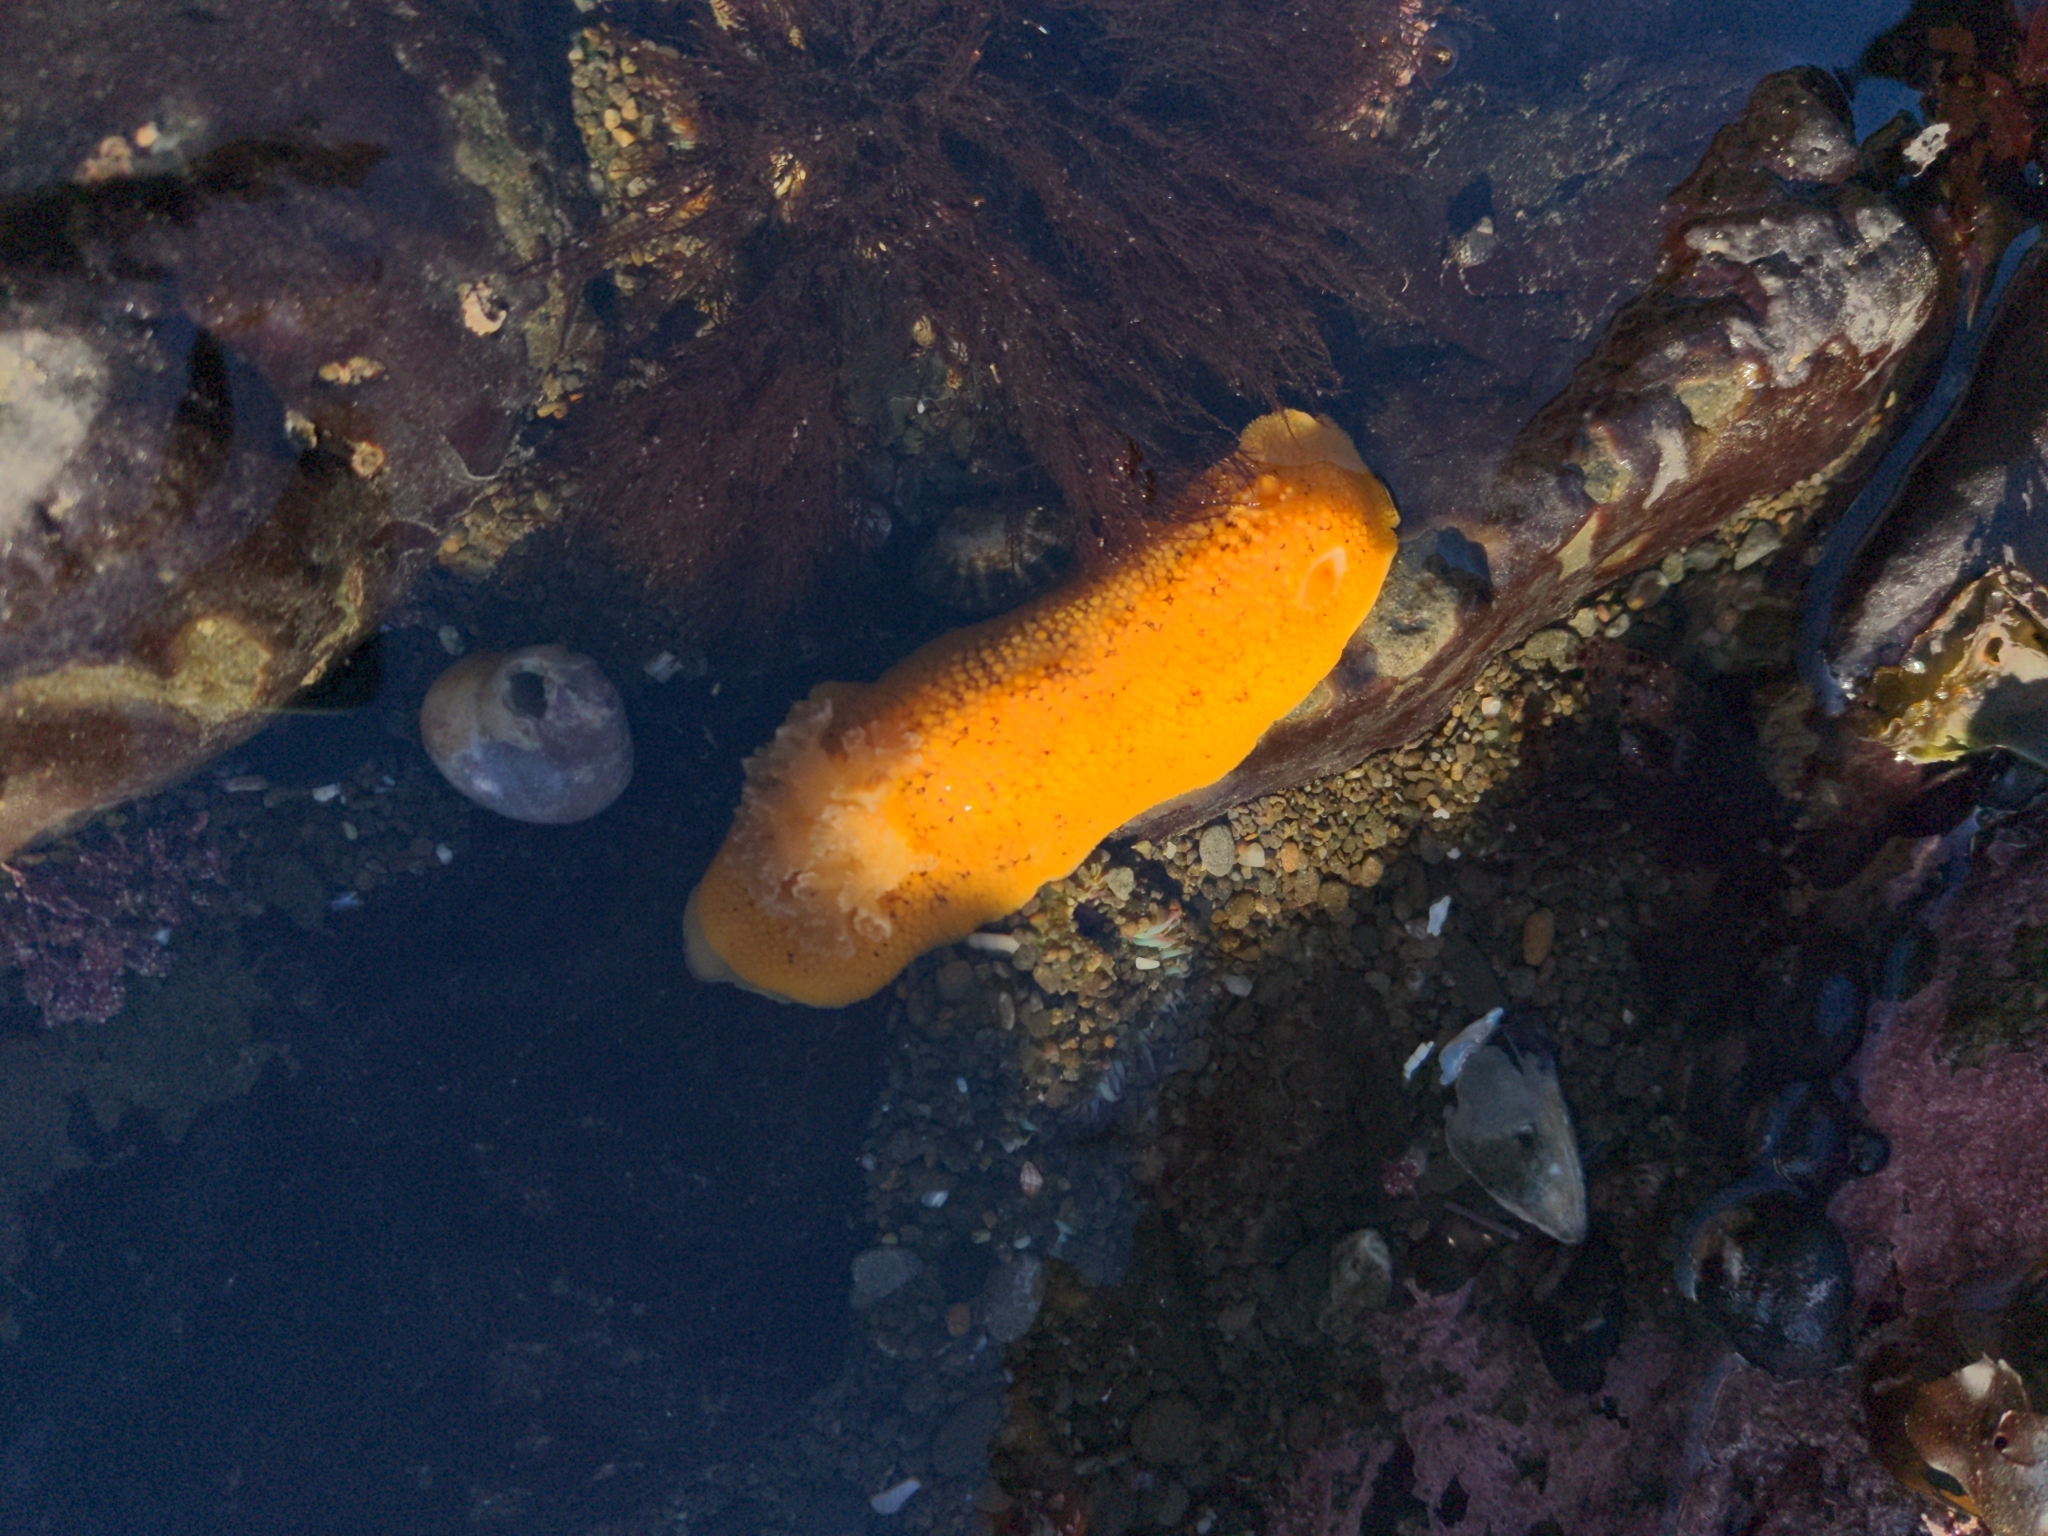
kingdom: Animalia
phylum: Mollusca
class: Gastropoda
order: Nudibranchia
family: Discodorididae
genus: Peltodoris
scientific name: Peltodoris nobilis
